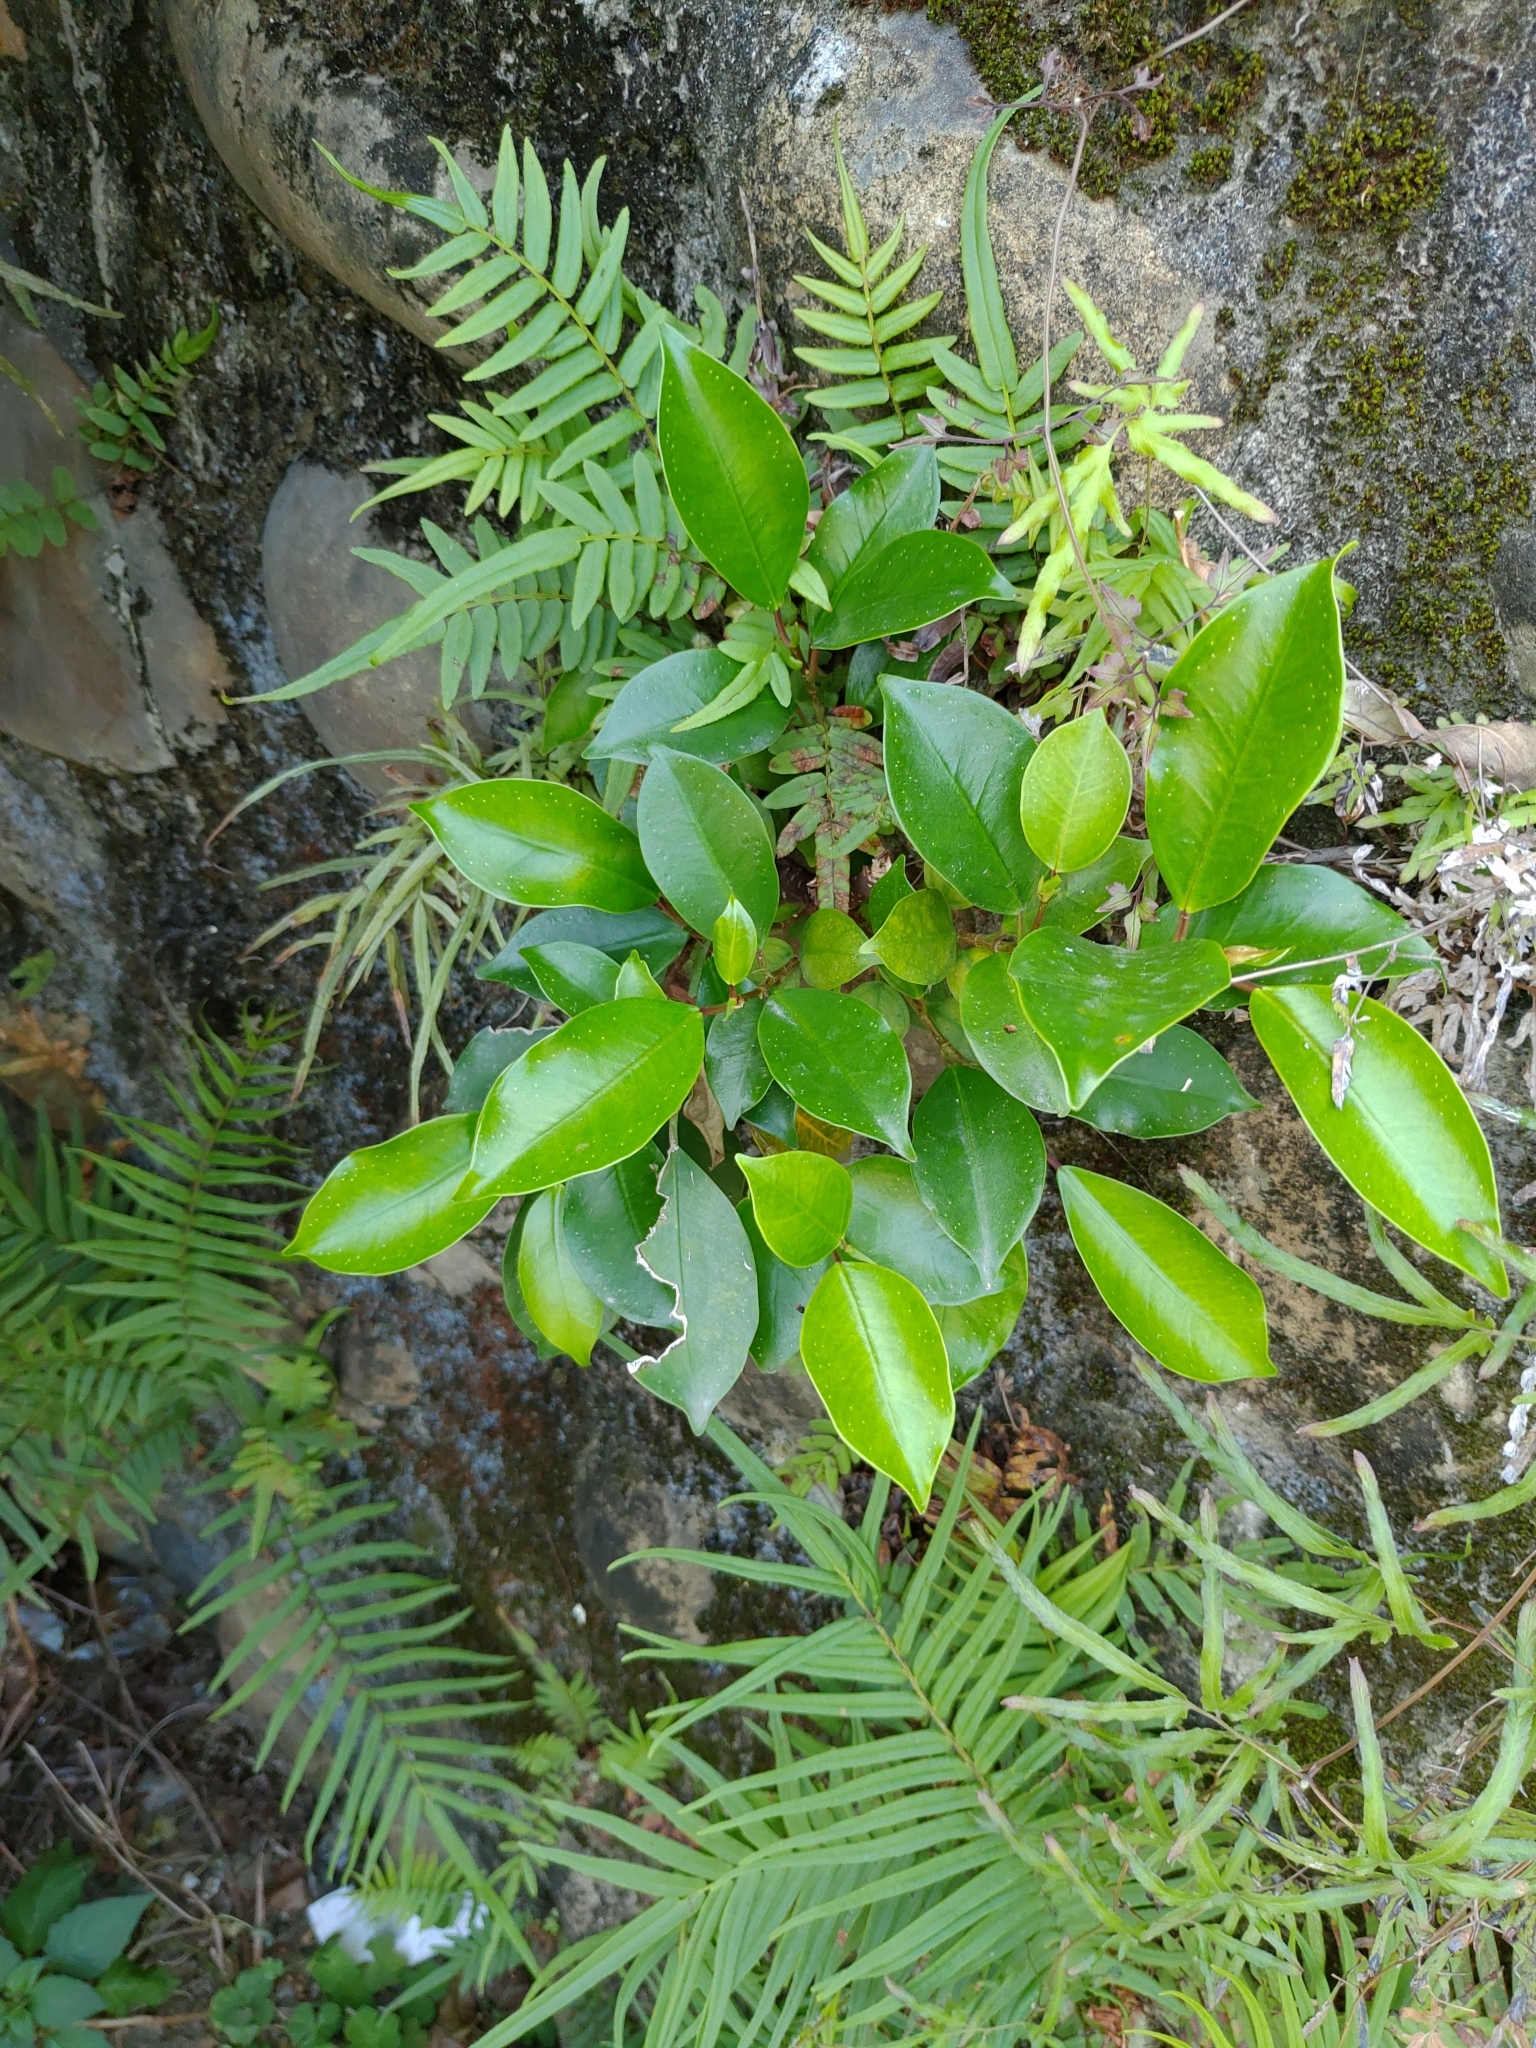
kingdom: Plantae
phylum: Tracheophyta
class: Magnoliopsida
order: Rosales
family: Moraceae
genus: Ficus
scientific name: Ficus microcarpa
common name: Chinese banyan
